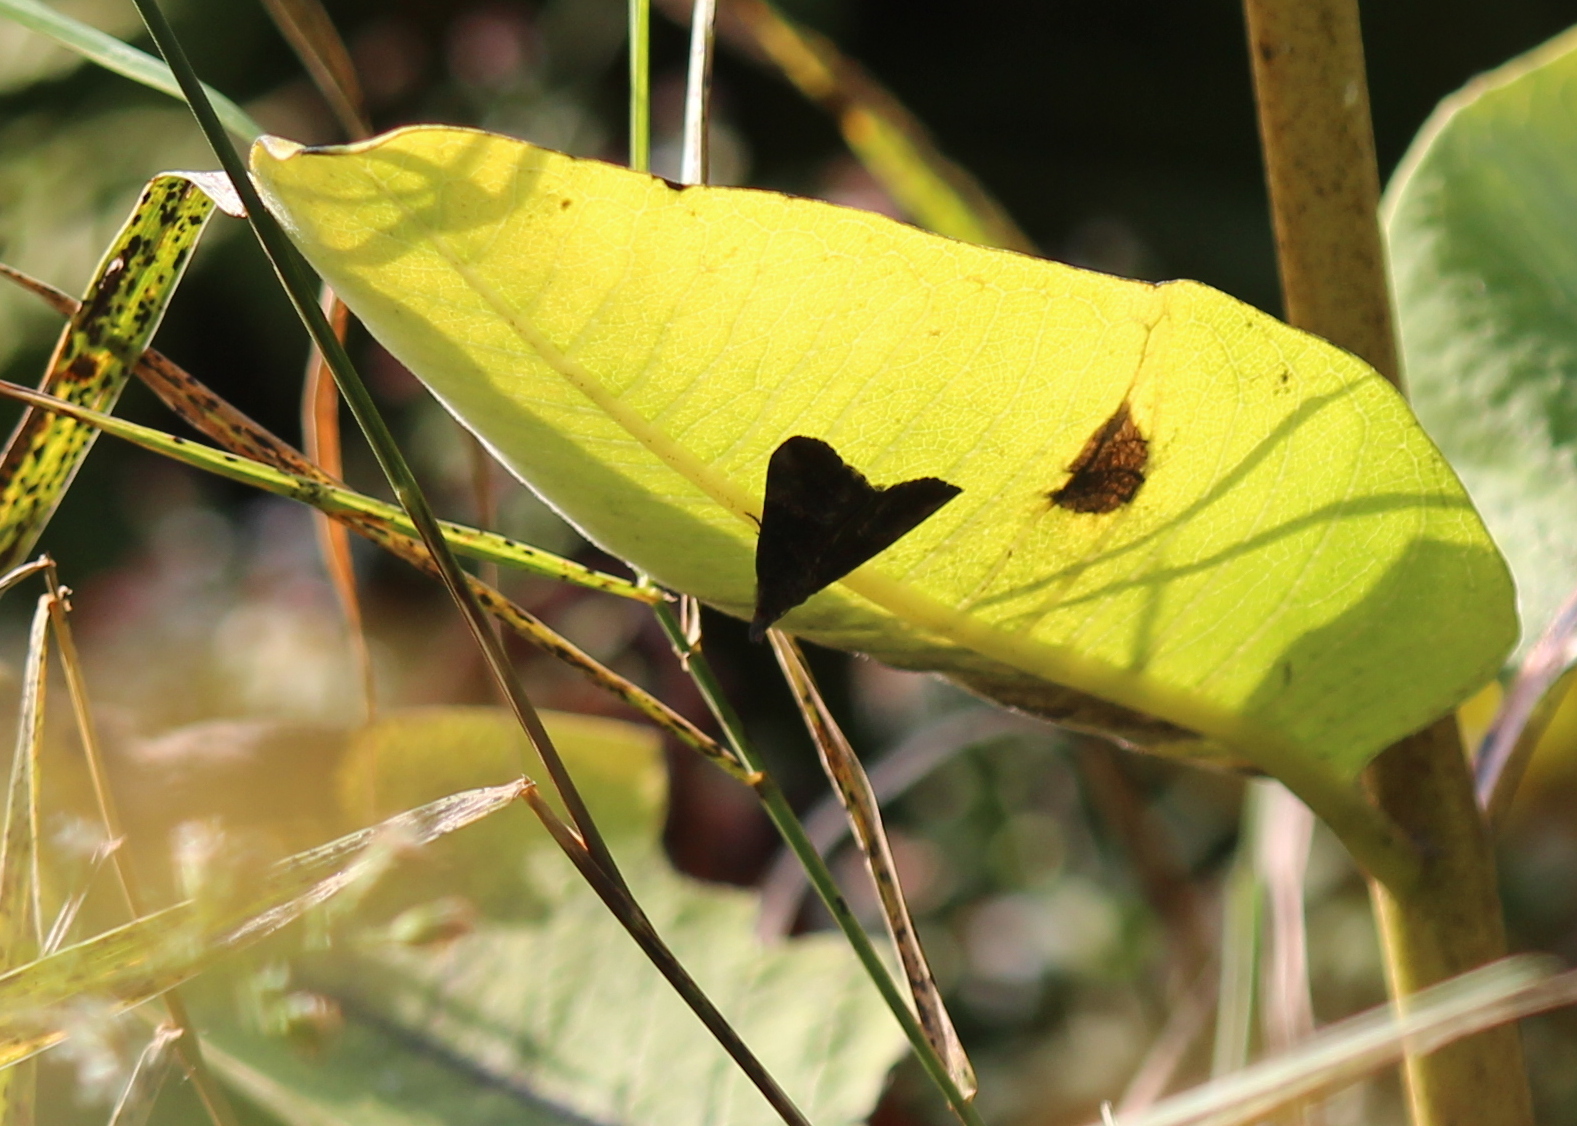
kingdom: Animalia
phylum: Arthropoda
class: Insecta
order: Lepidoptera
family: Erebidae
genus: Hypena
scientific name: Hypena scabra
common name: Green cloverworm
